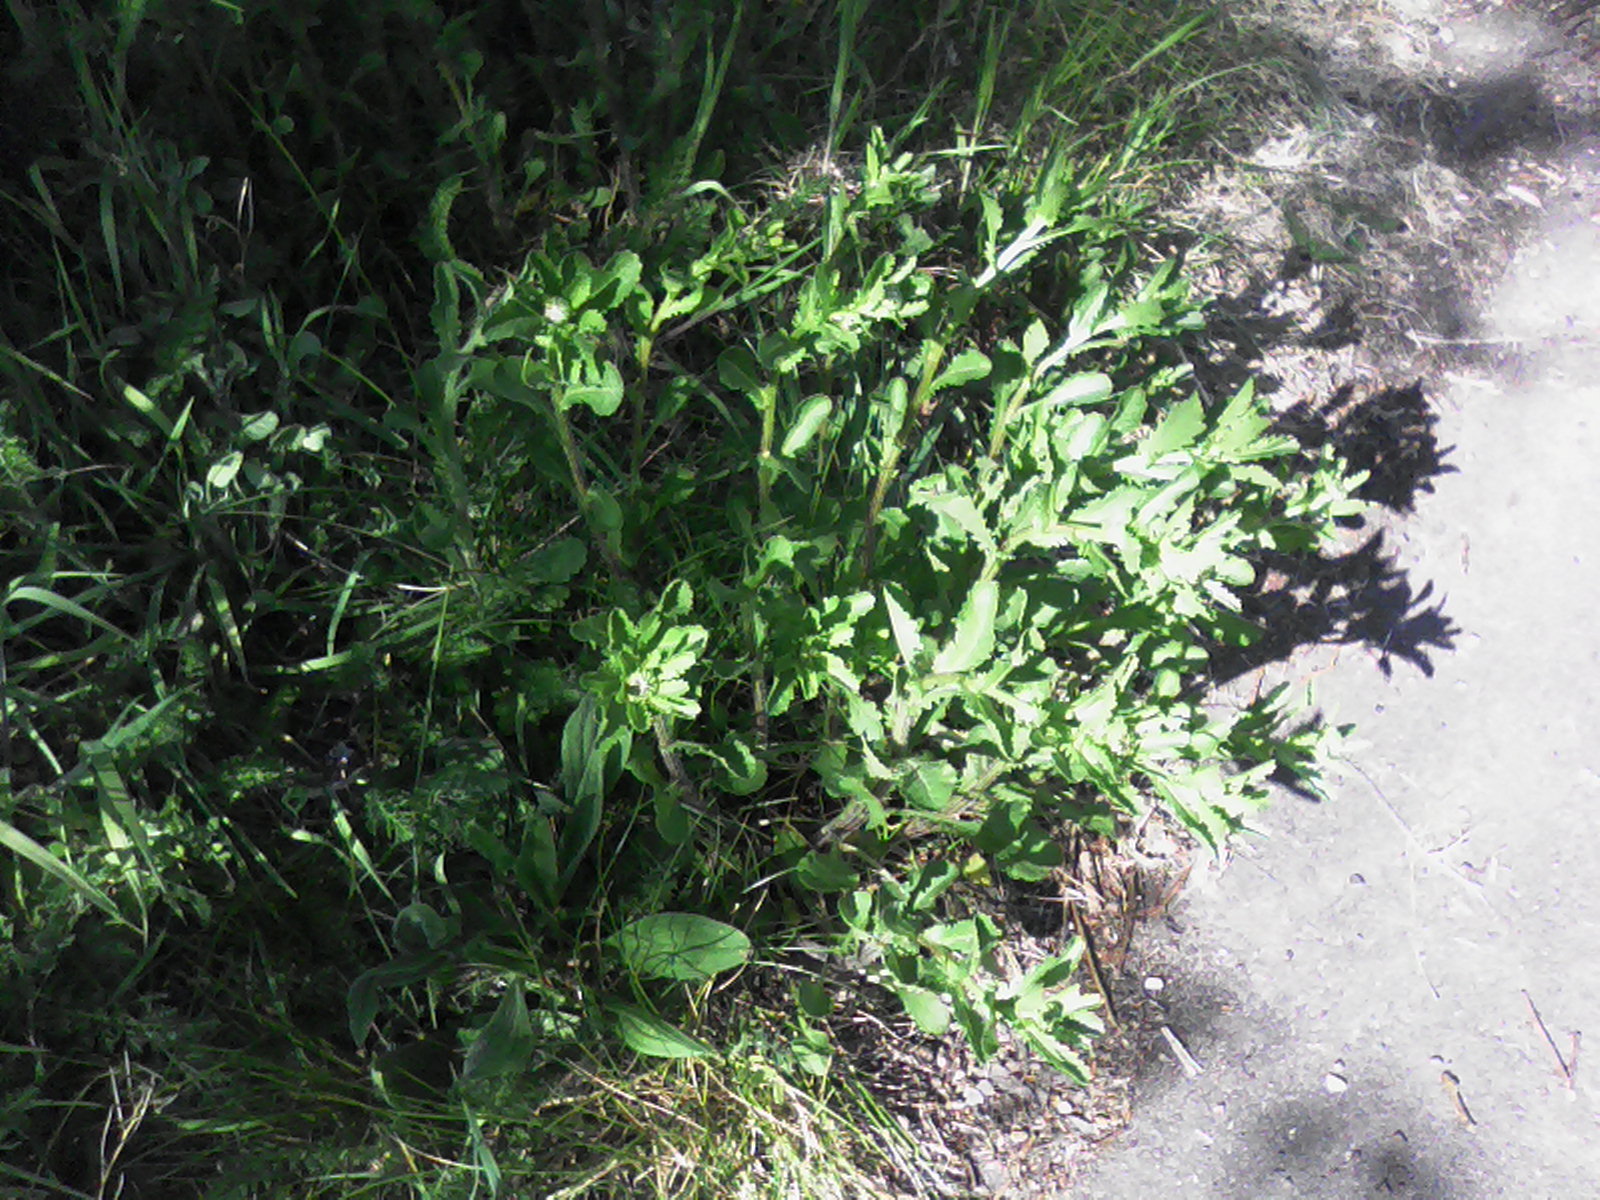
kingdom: Plantae
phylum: Tracheophyta
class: Magnoliopsida
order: Asterales
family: Asteraceae
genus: Leucanthemum
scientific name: Leucanthemum vulgare
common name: Oxeye daisy
